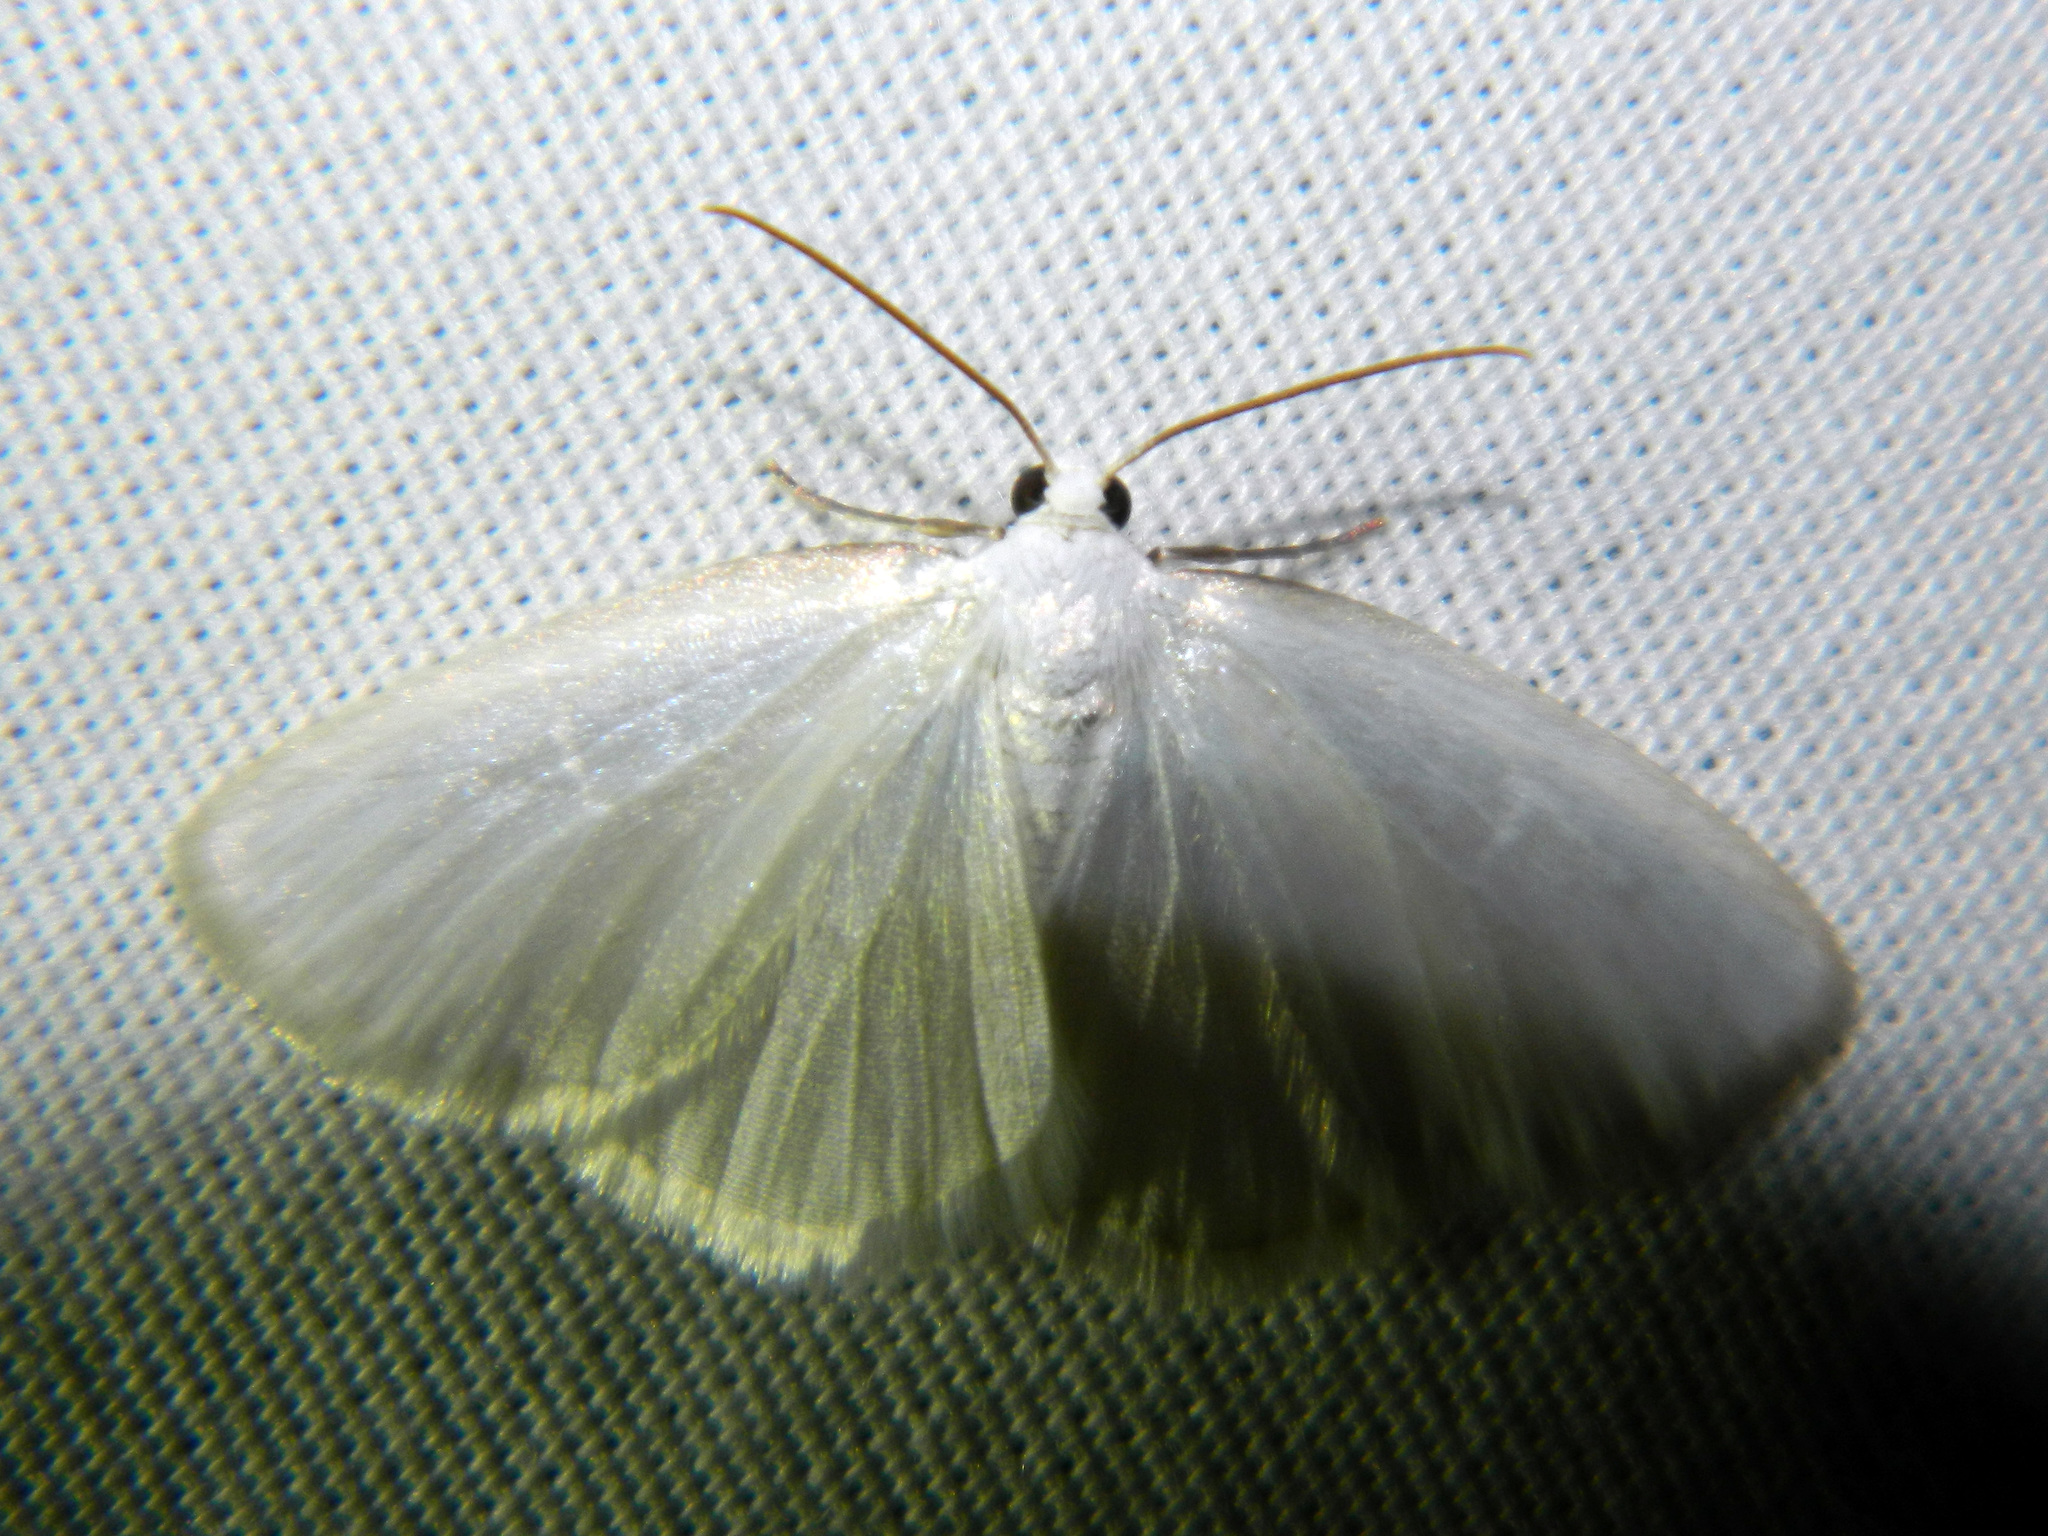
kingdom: Animalia
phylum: Arthropoda
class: Insecta
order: Lepidoptera
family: Geometridae
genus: Lomographa
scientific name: Lomographa vestaliata
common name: White spring moth
